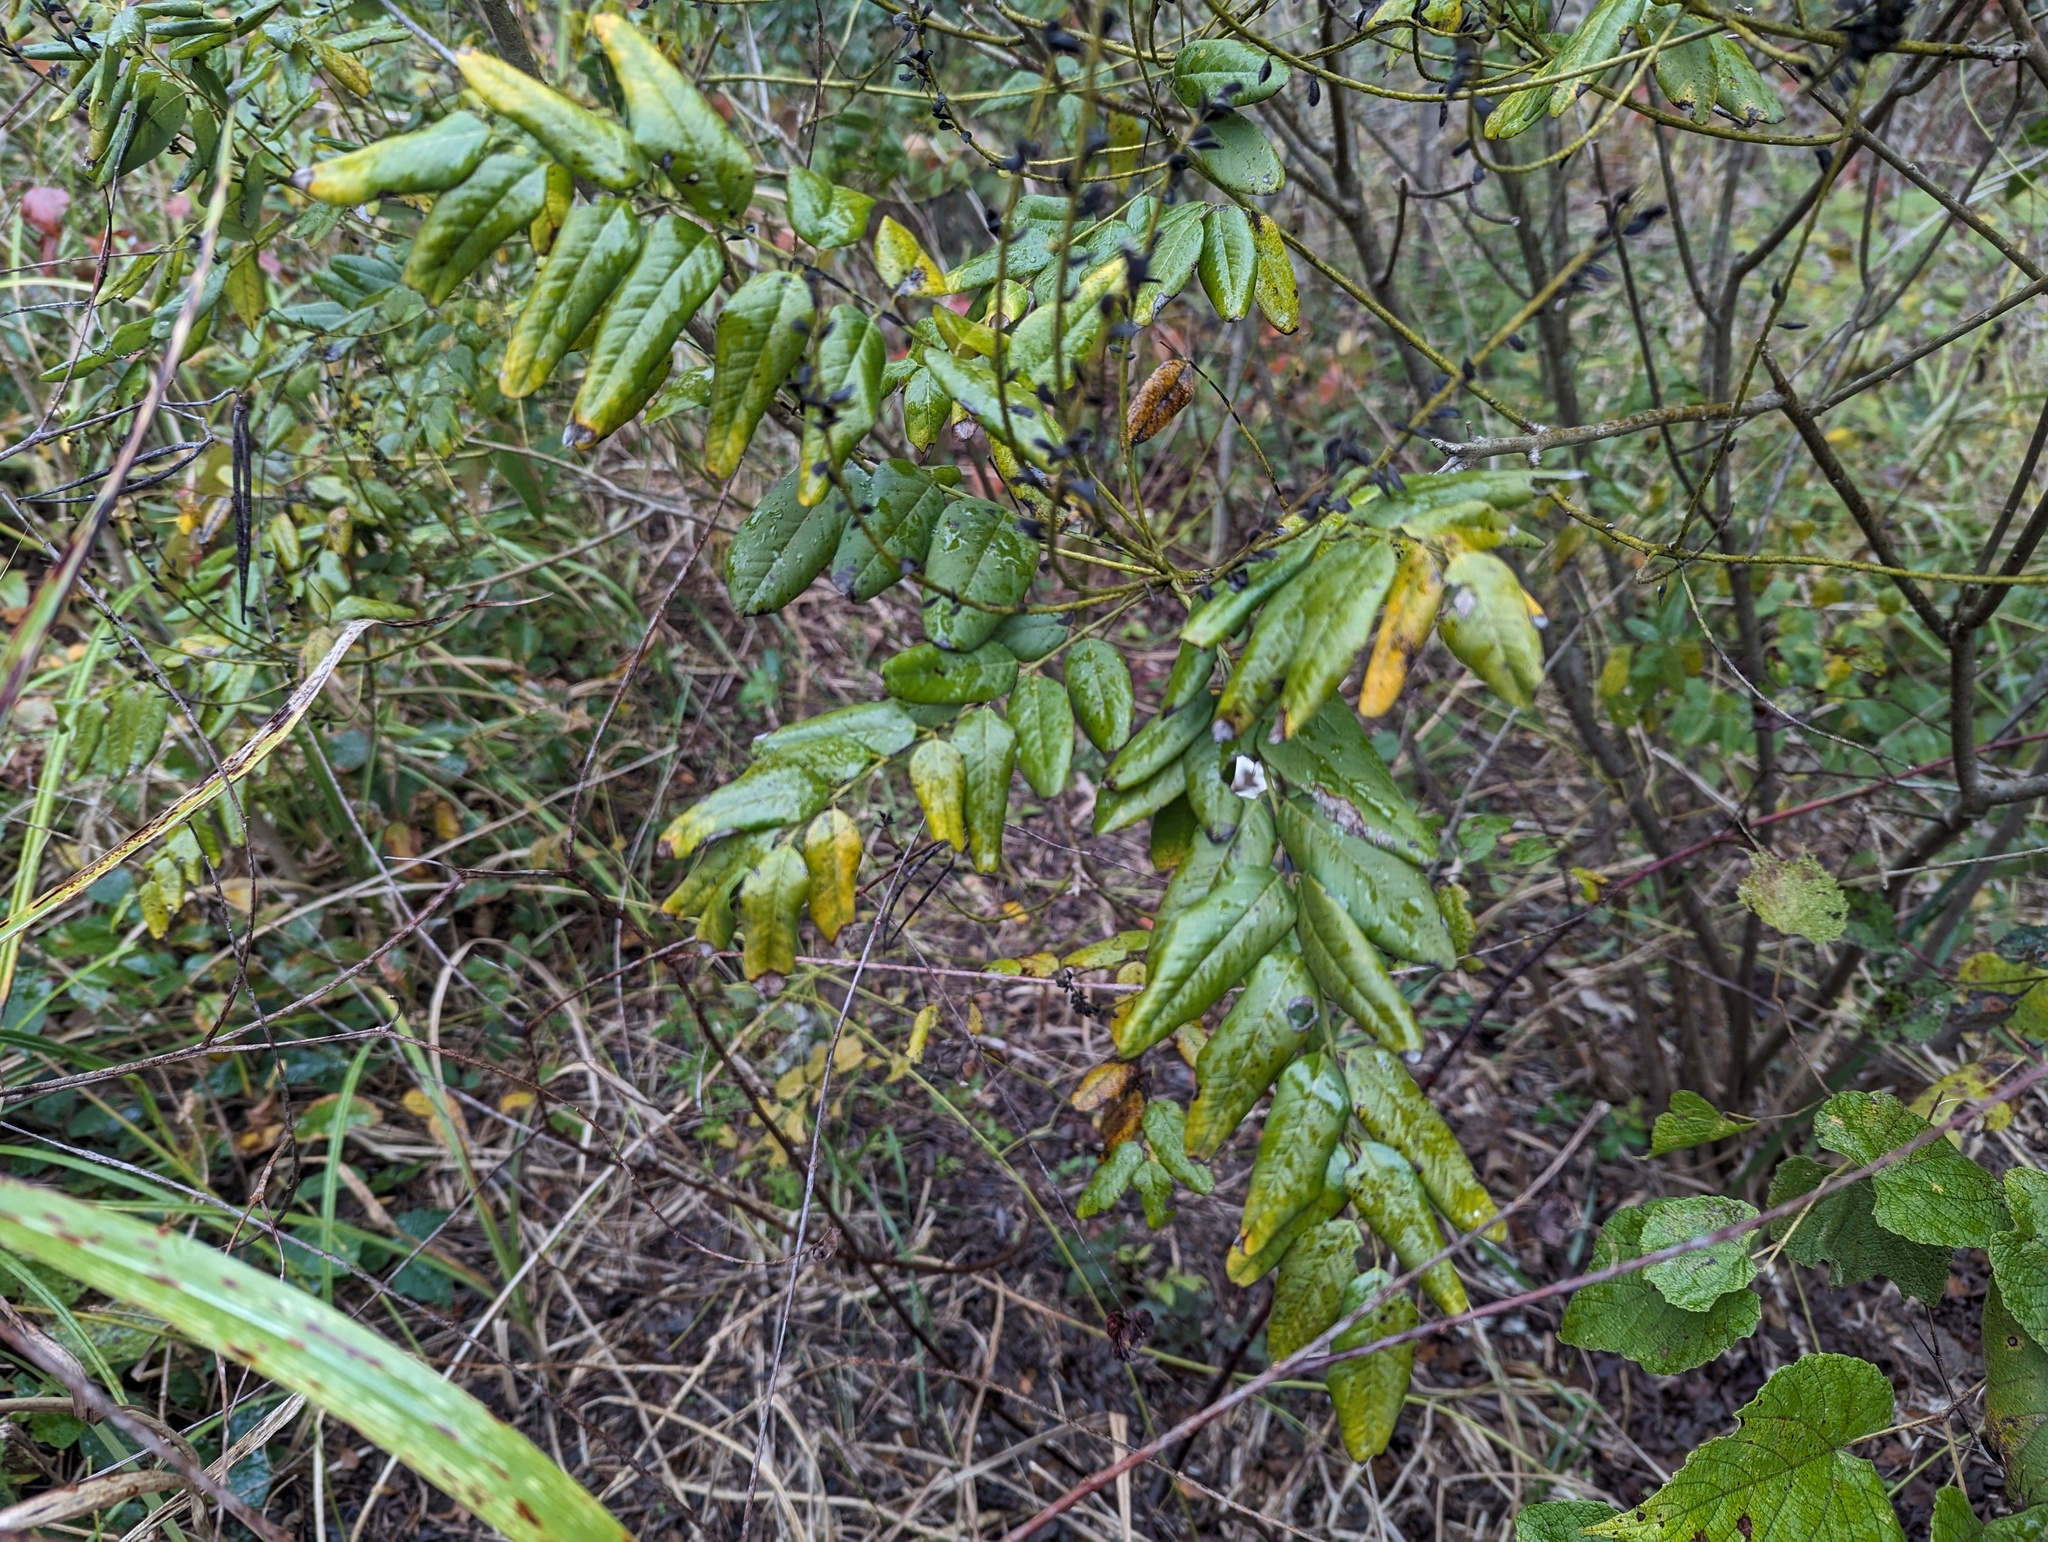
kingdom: Plantae
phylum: Tracheophyta
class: Magnoliopsida
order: Fabales
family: Fabaceae
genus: Amorpha
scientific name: Amorpha nitens
